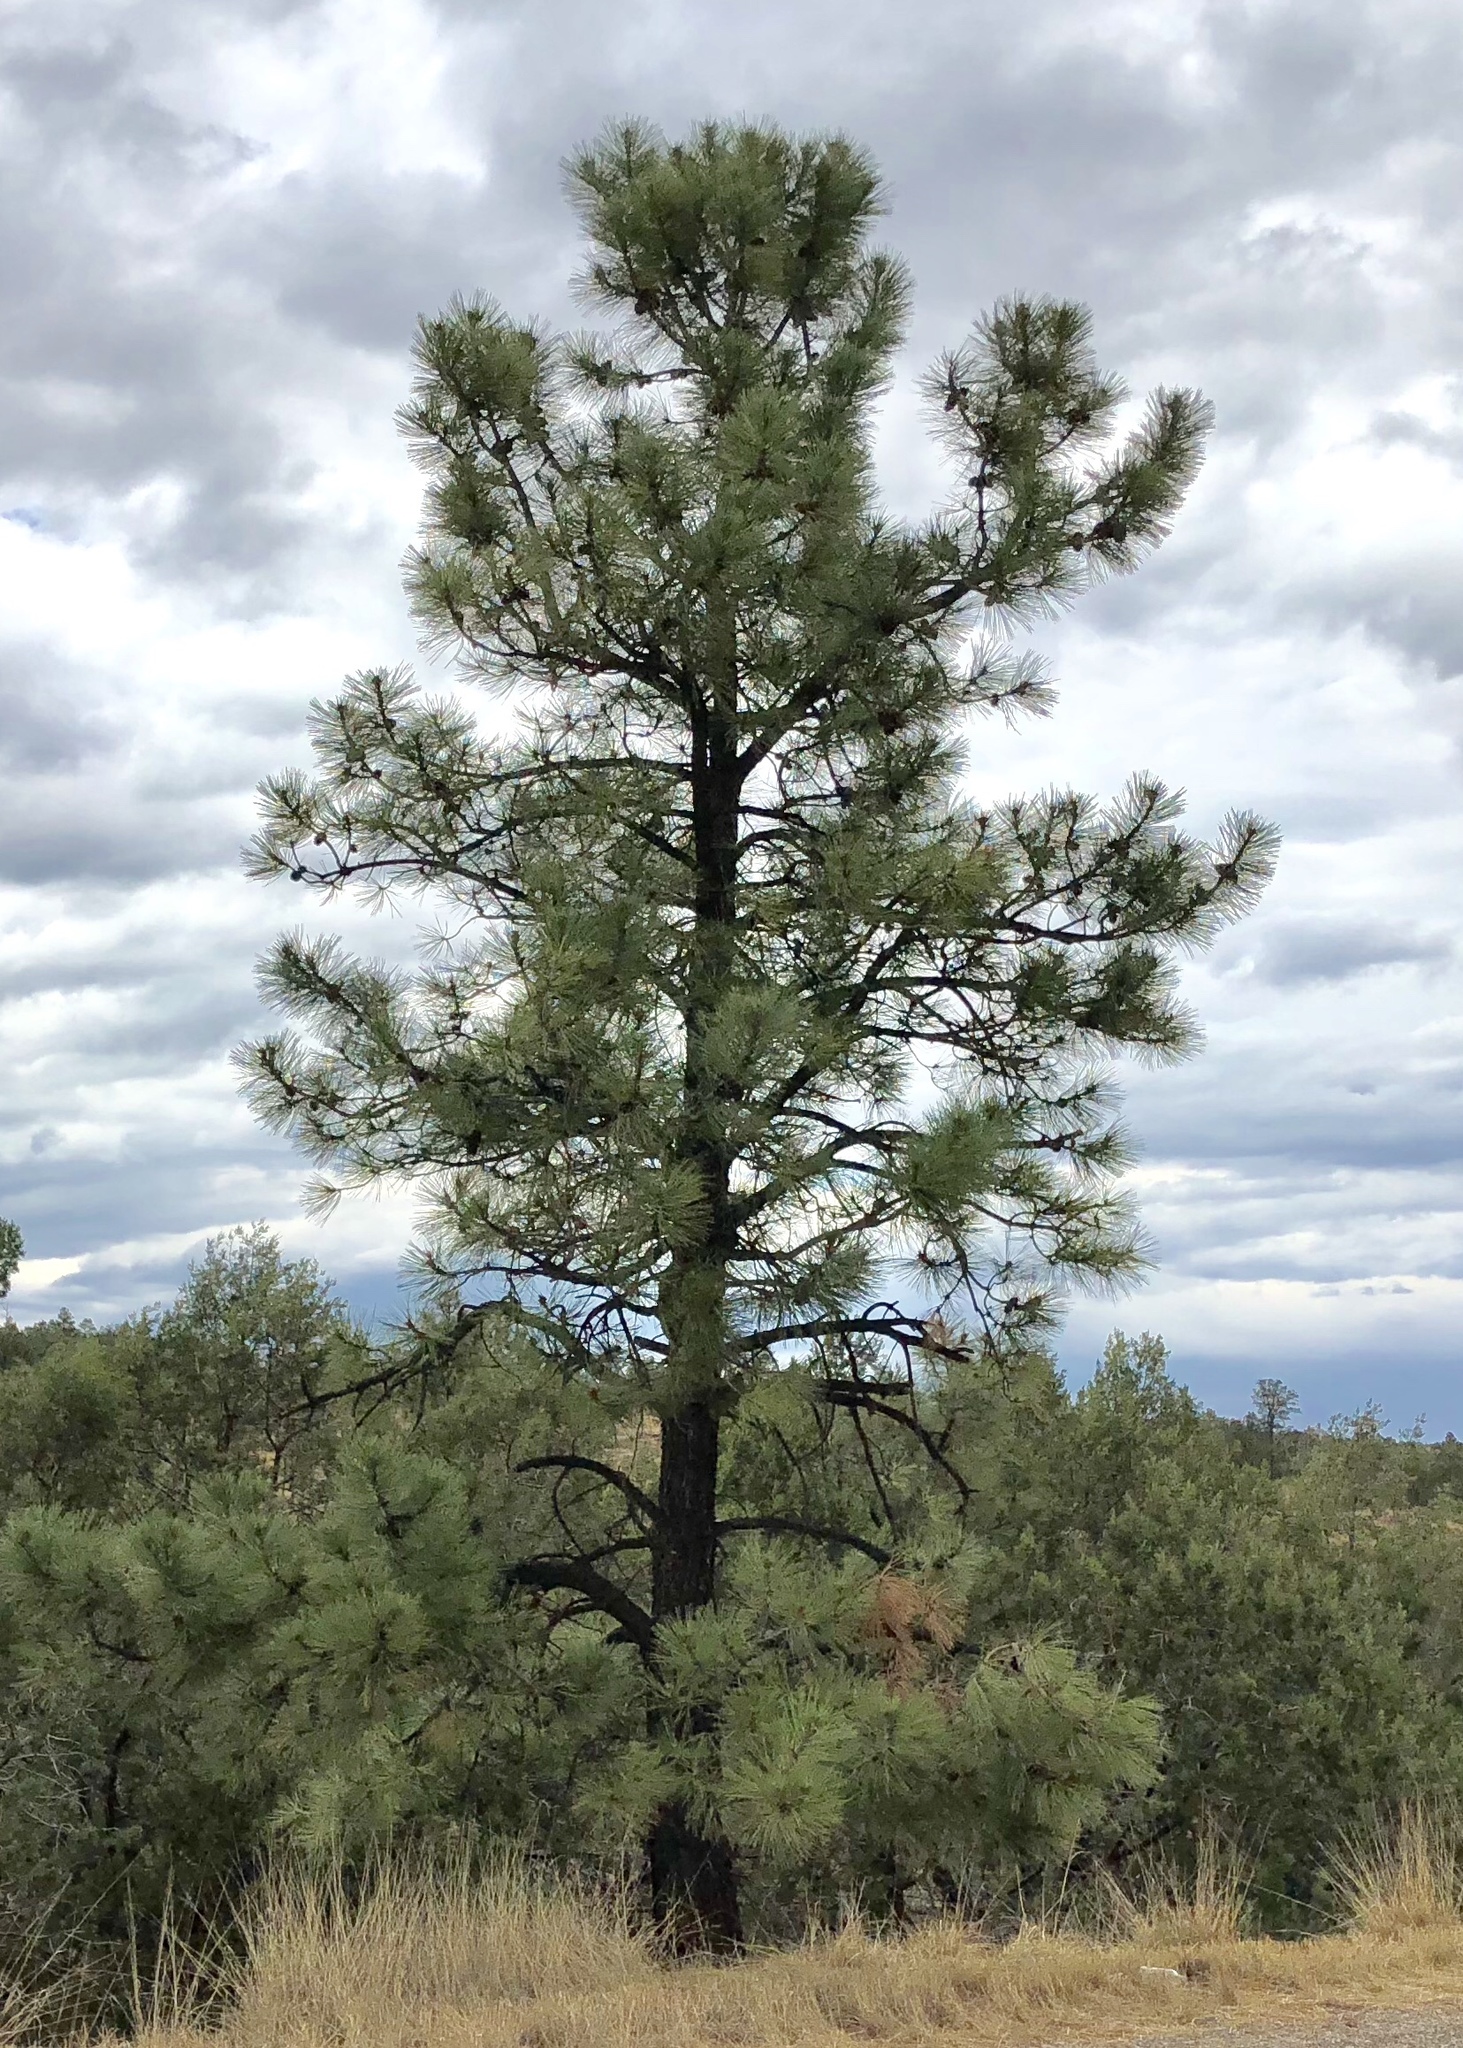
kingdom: Plantae
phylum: Tracheophyta
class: Pinopsida
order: Pinales
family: Pinaceae
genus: Pinus
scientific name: Pinus ponderosa
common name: Western yellow-pine
